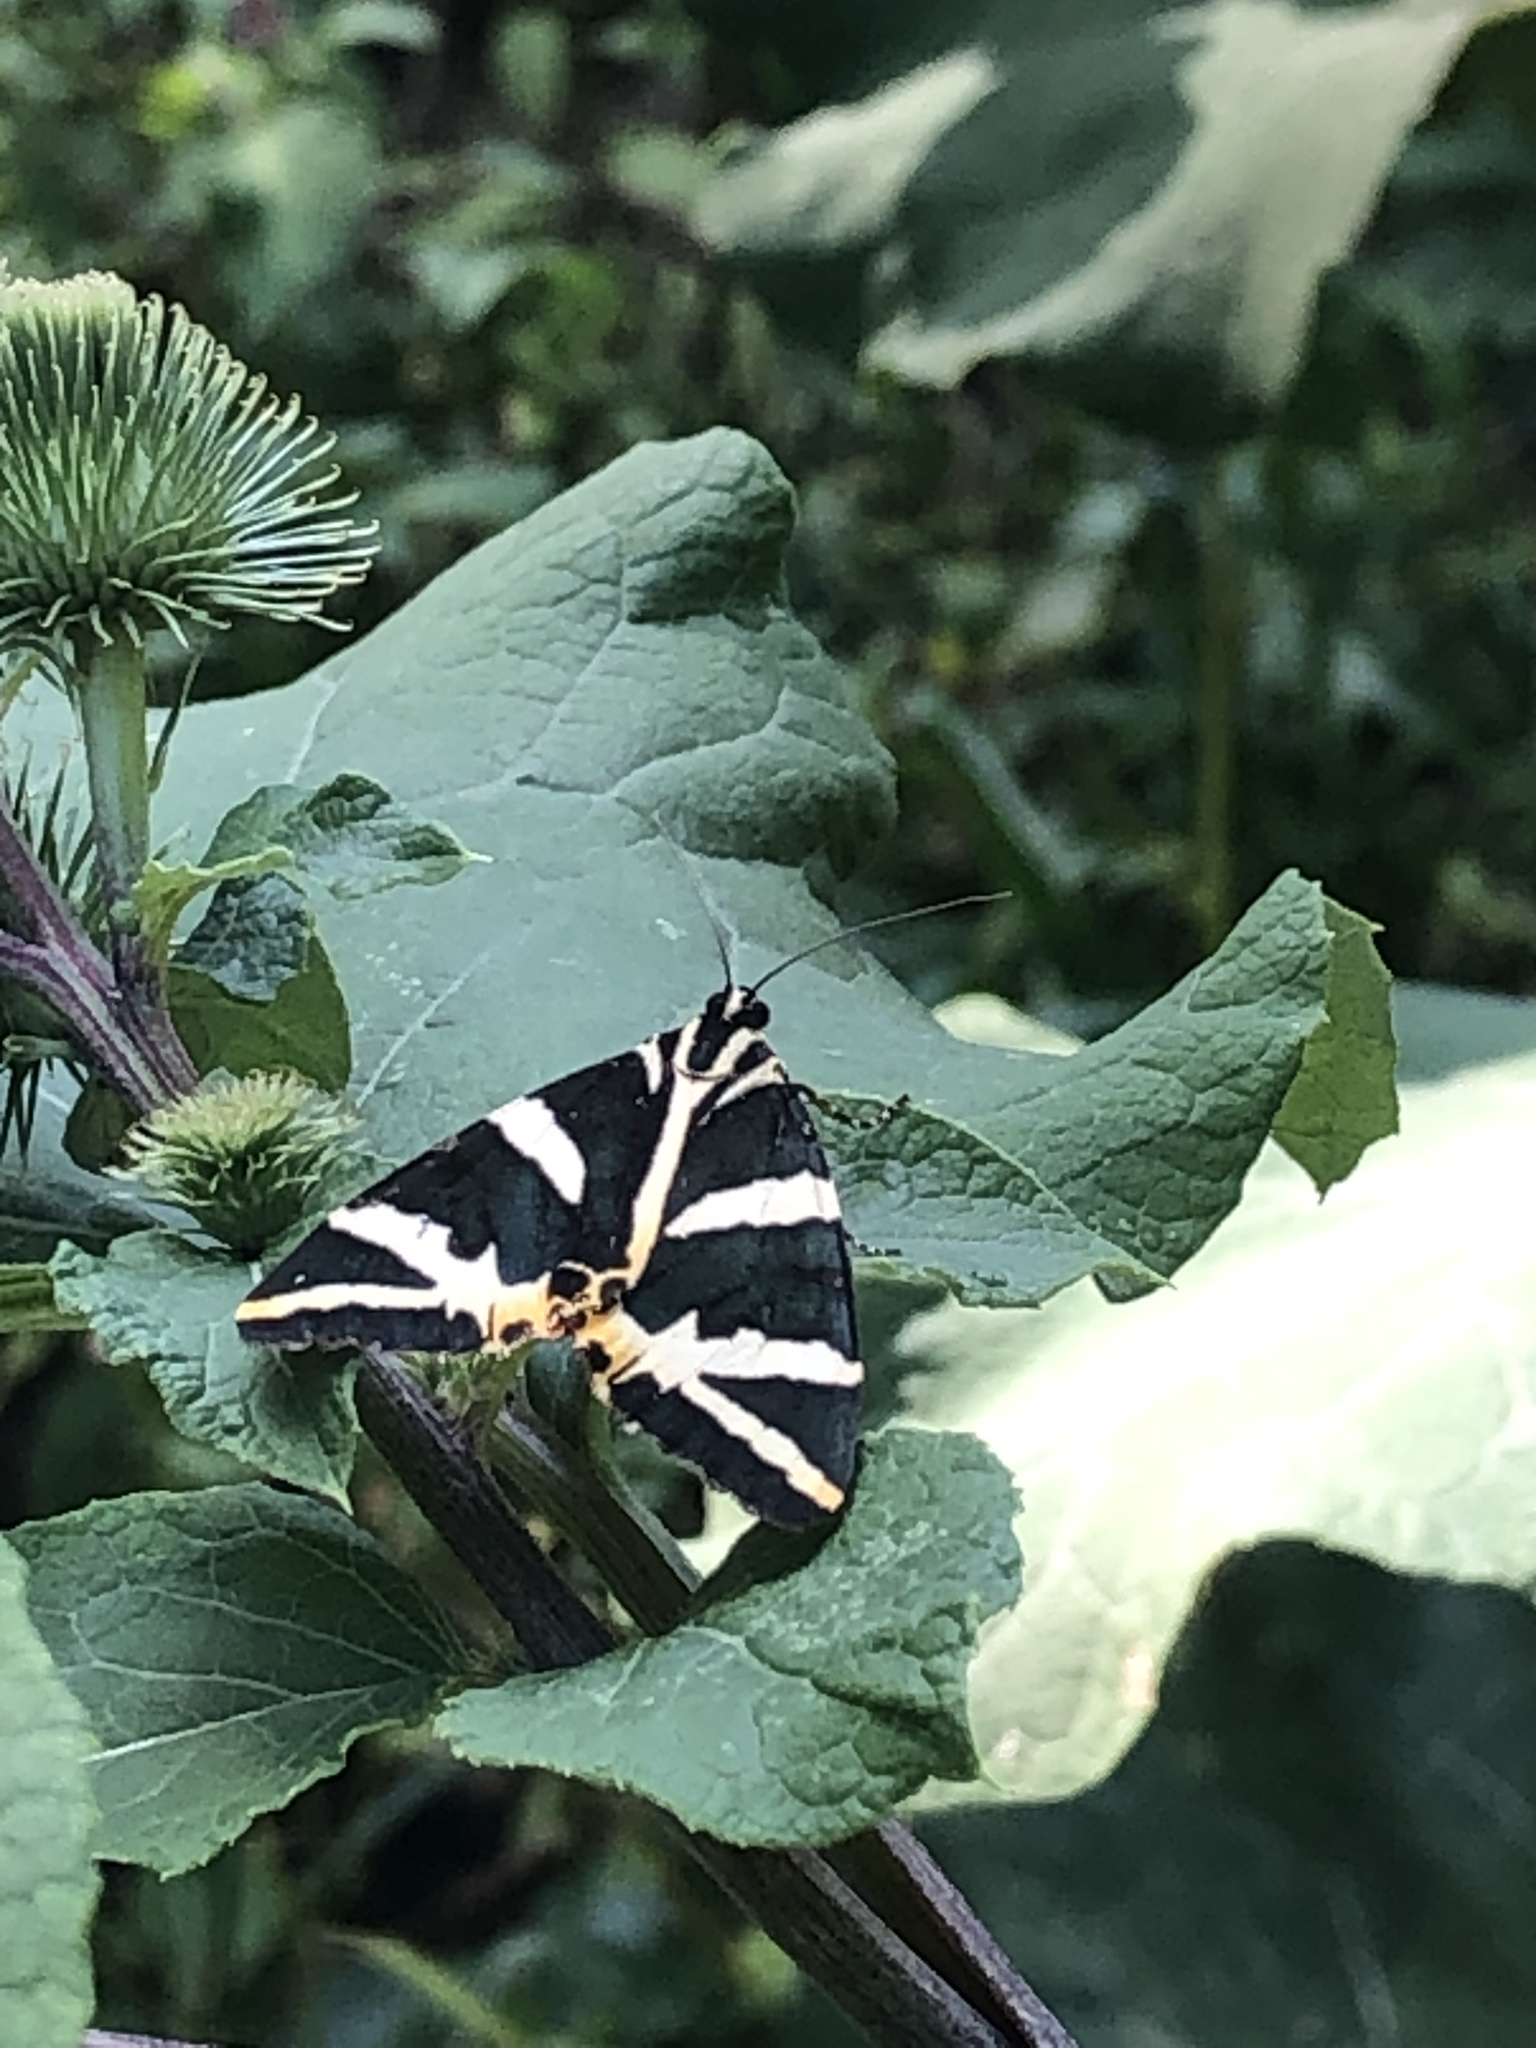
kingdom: Animalia
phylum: Arthropoda
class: Insecta
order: Lepidoptera
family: Erebidae
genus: Euplagia
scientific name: Euplagia quadripunctaria
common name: Jersey tiger
